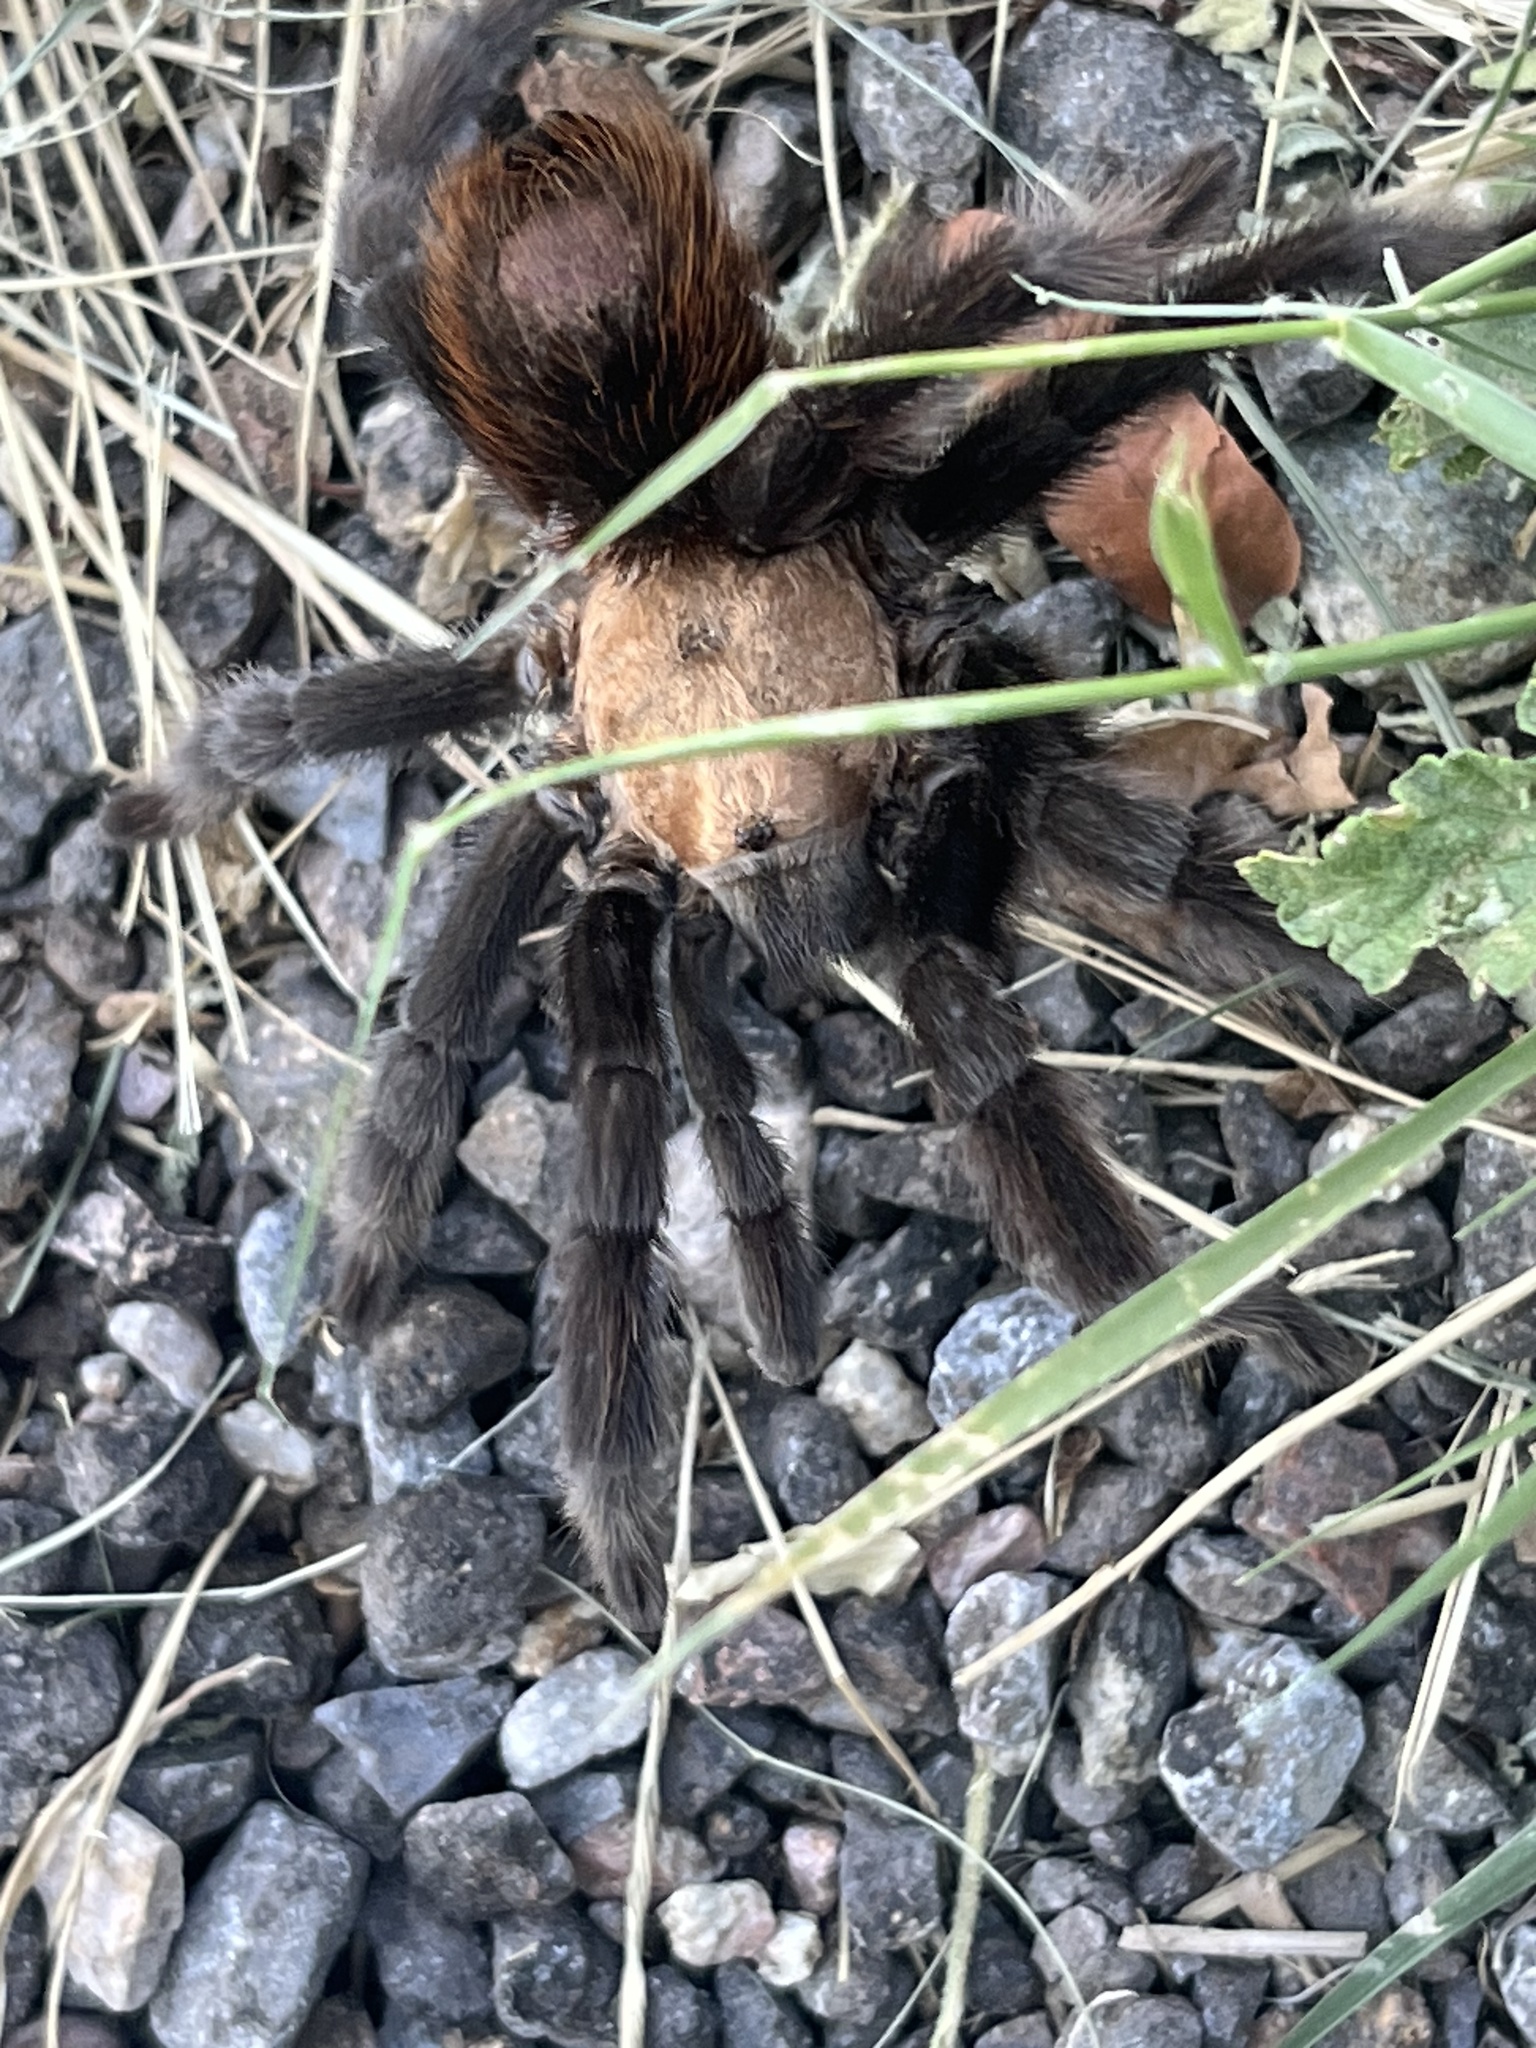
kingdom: Animalia
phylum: Arthropoda
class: Arachnida
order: Araneae
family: Theraphosidae
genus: Aphonopelma
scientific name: Aphonopelma hentzi
